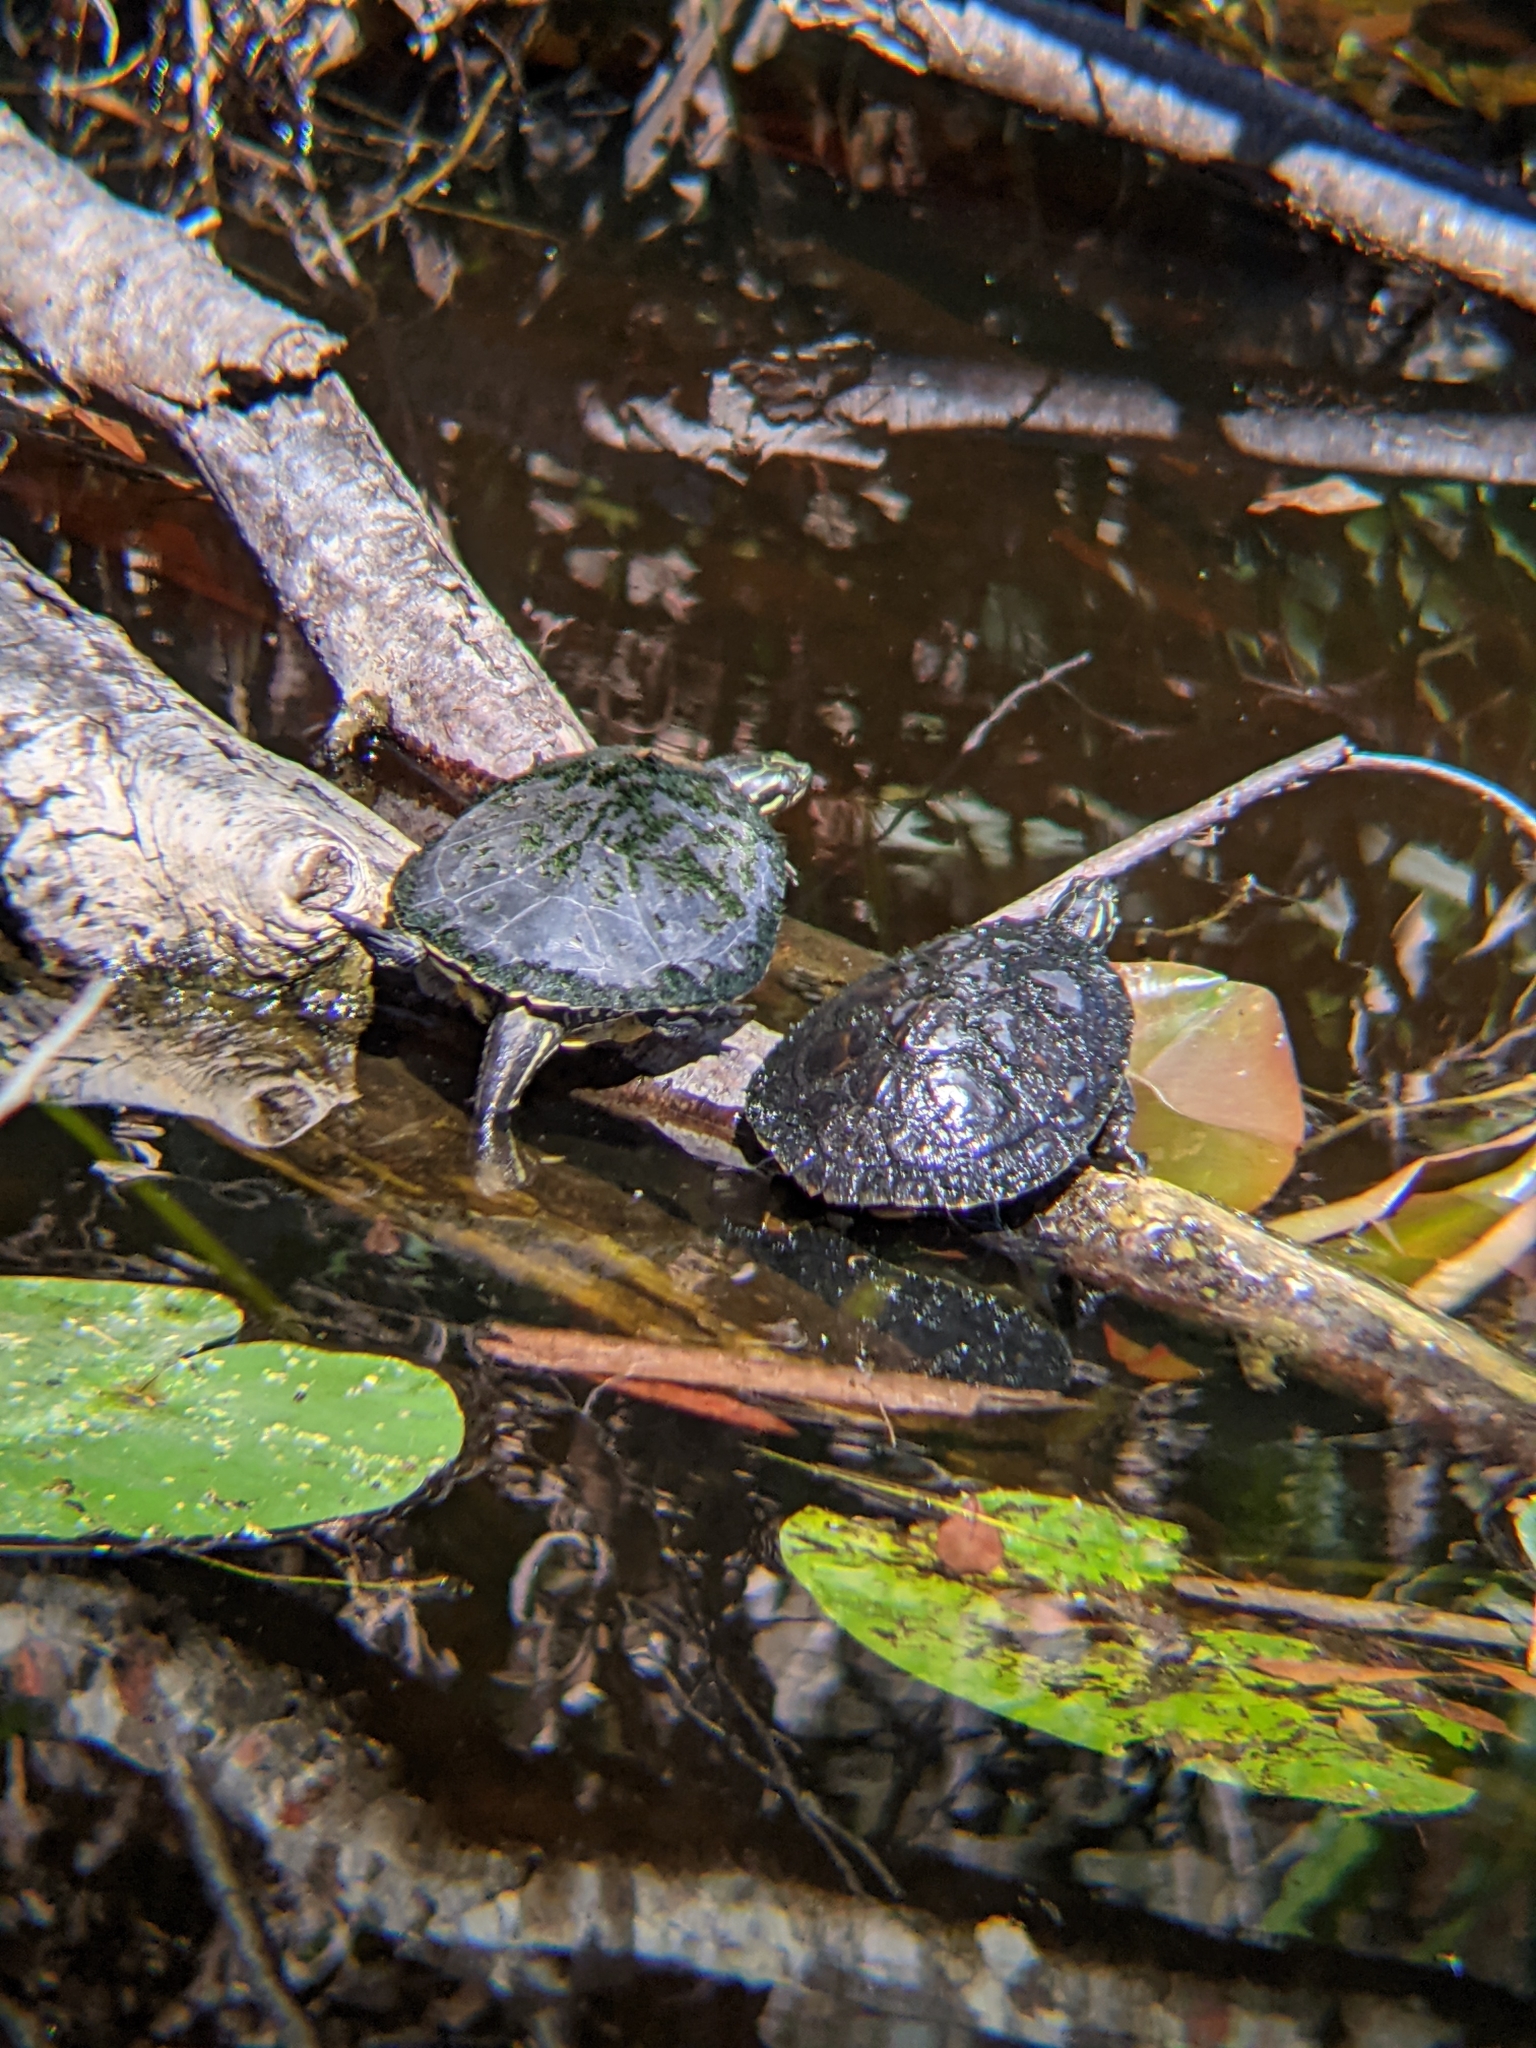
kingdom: Animalia
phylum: Chordata
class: Testudines
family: Emydidae
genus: Trachemys
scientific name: Trachemys scripta
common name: Slider
